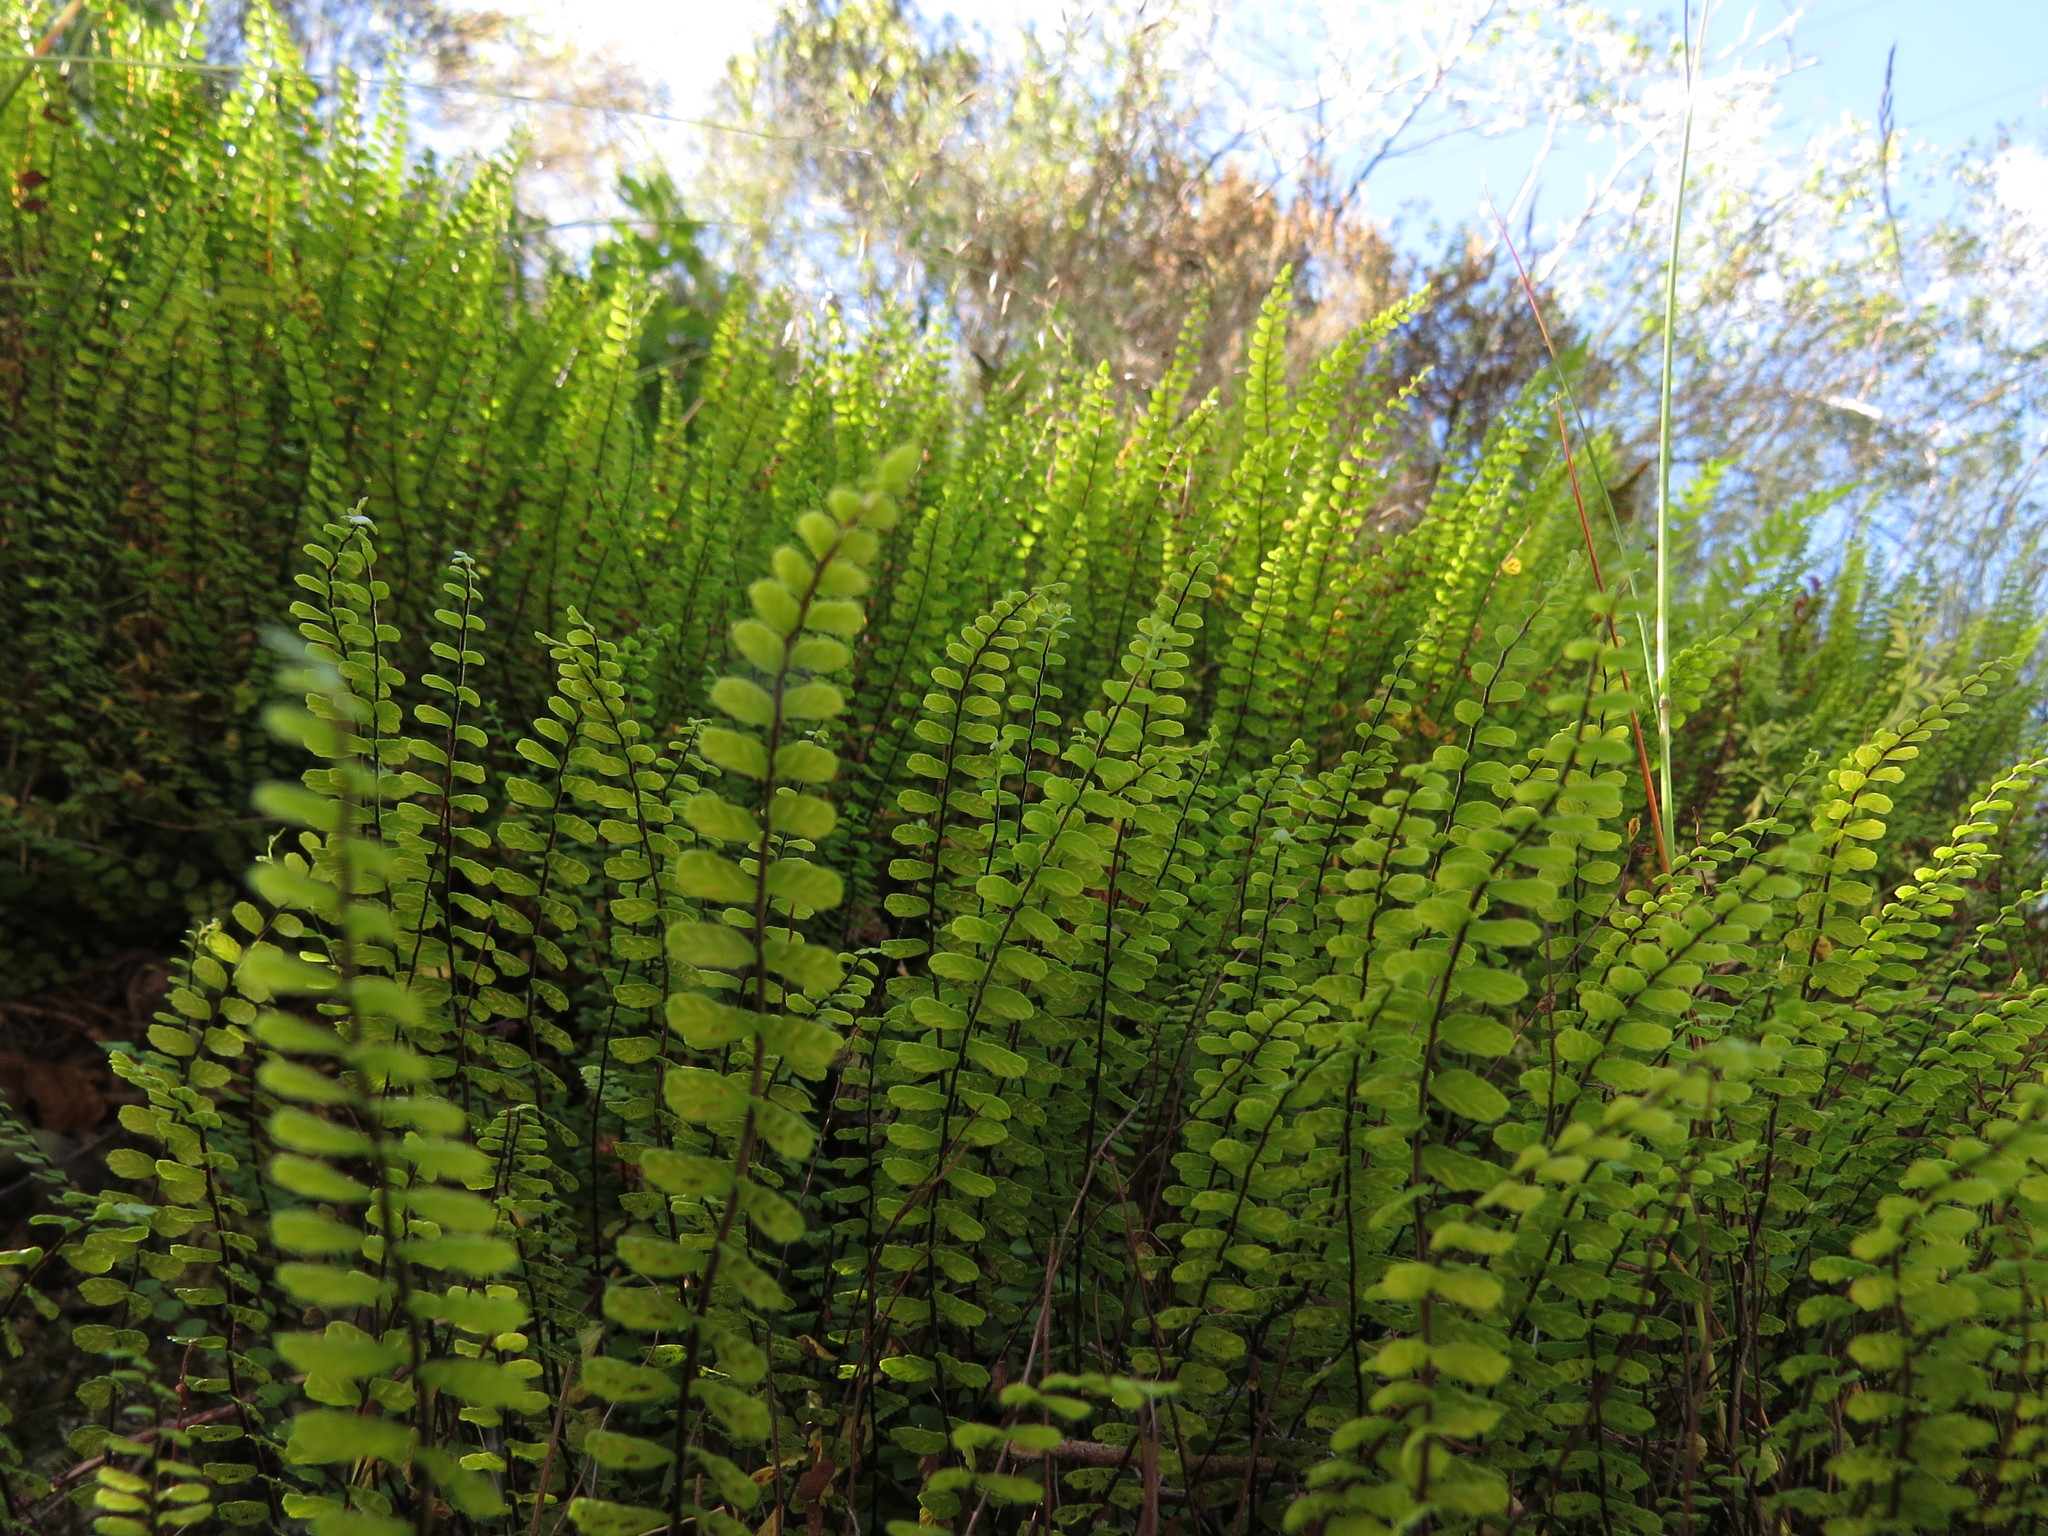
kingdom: Plantae
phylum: Tracheophyta
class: Polypodiopsida
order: Polypodiales
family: Aspleniaceae
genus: Asplenium
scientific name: Asplenium trichomanes
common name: Maidenhair spleenwort
